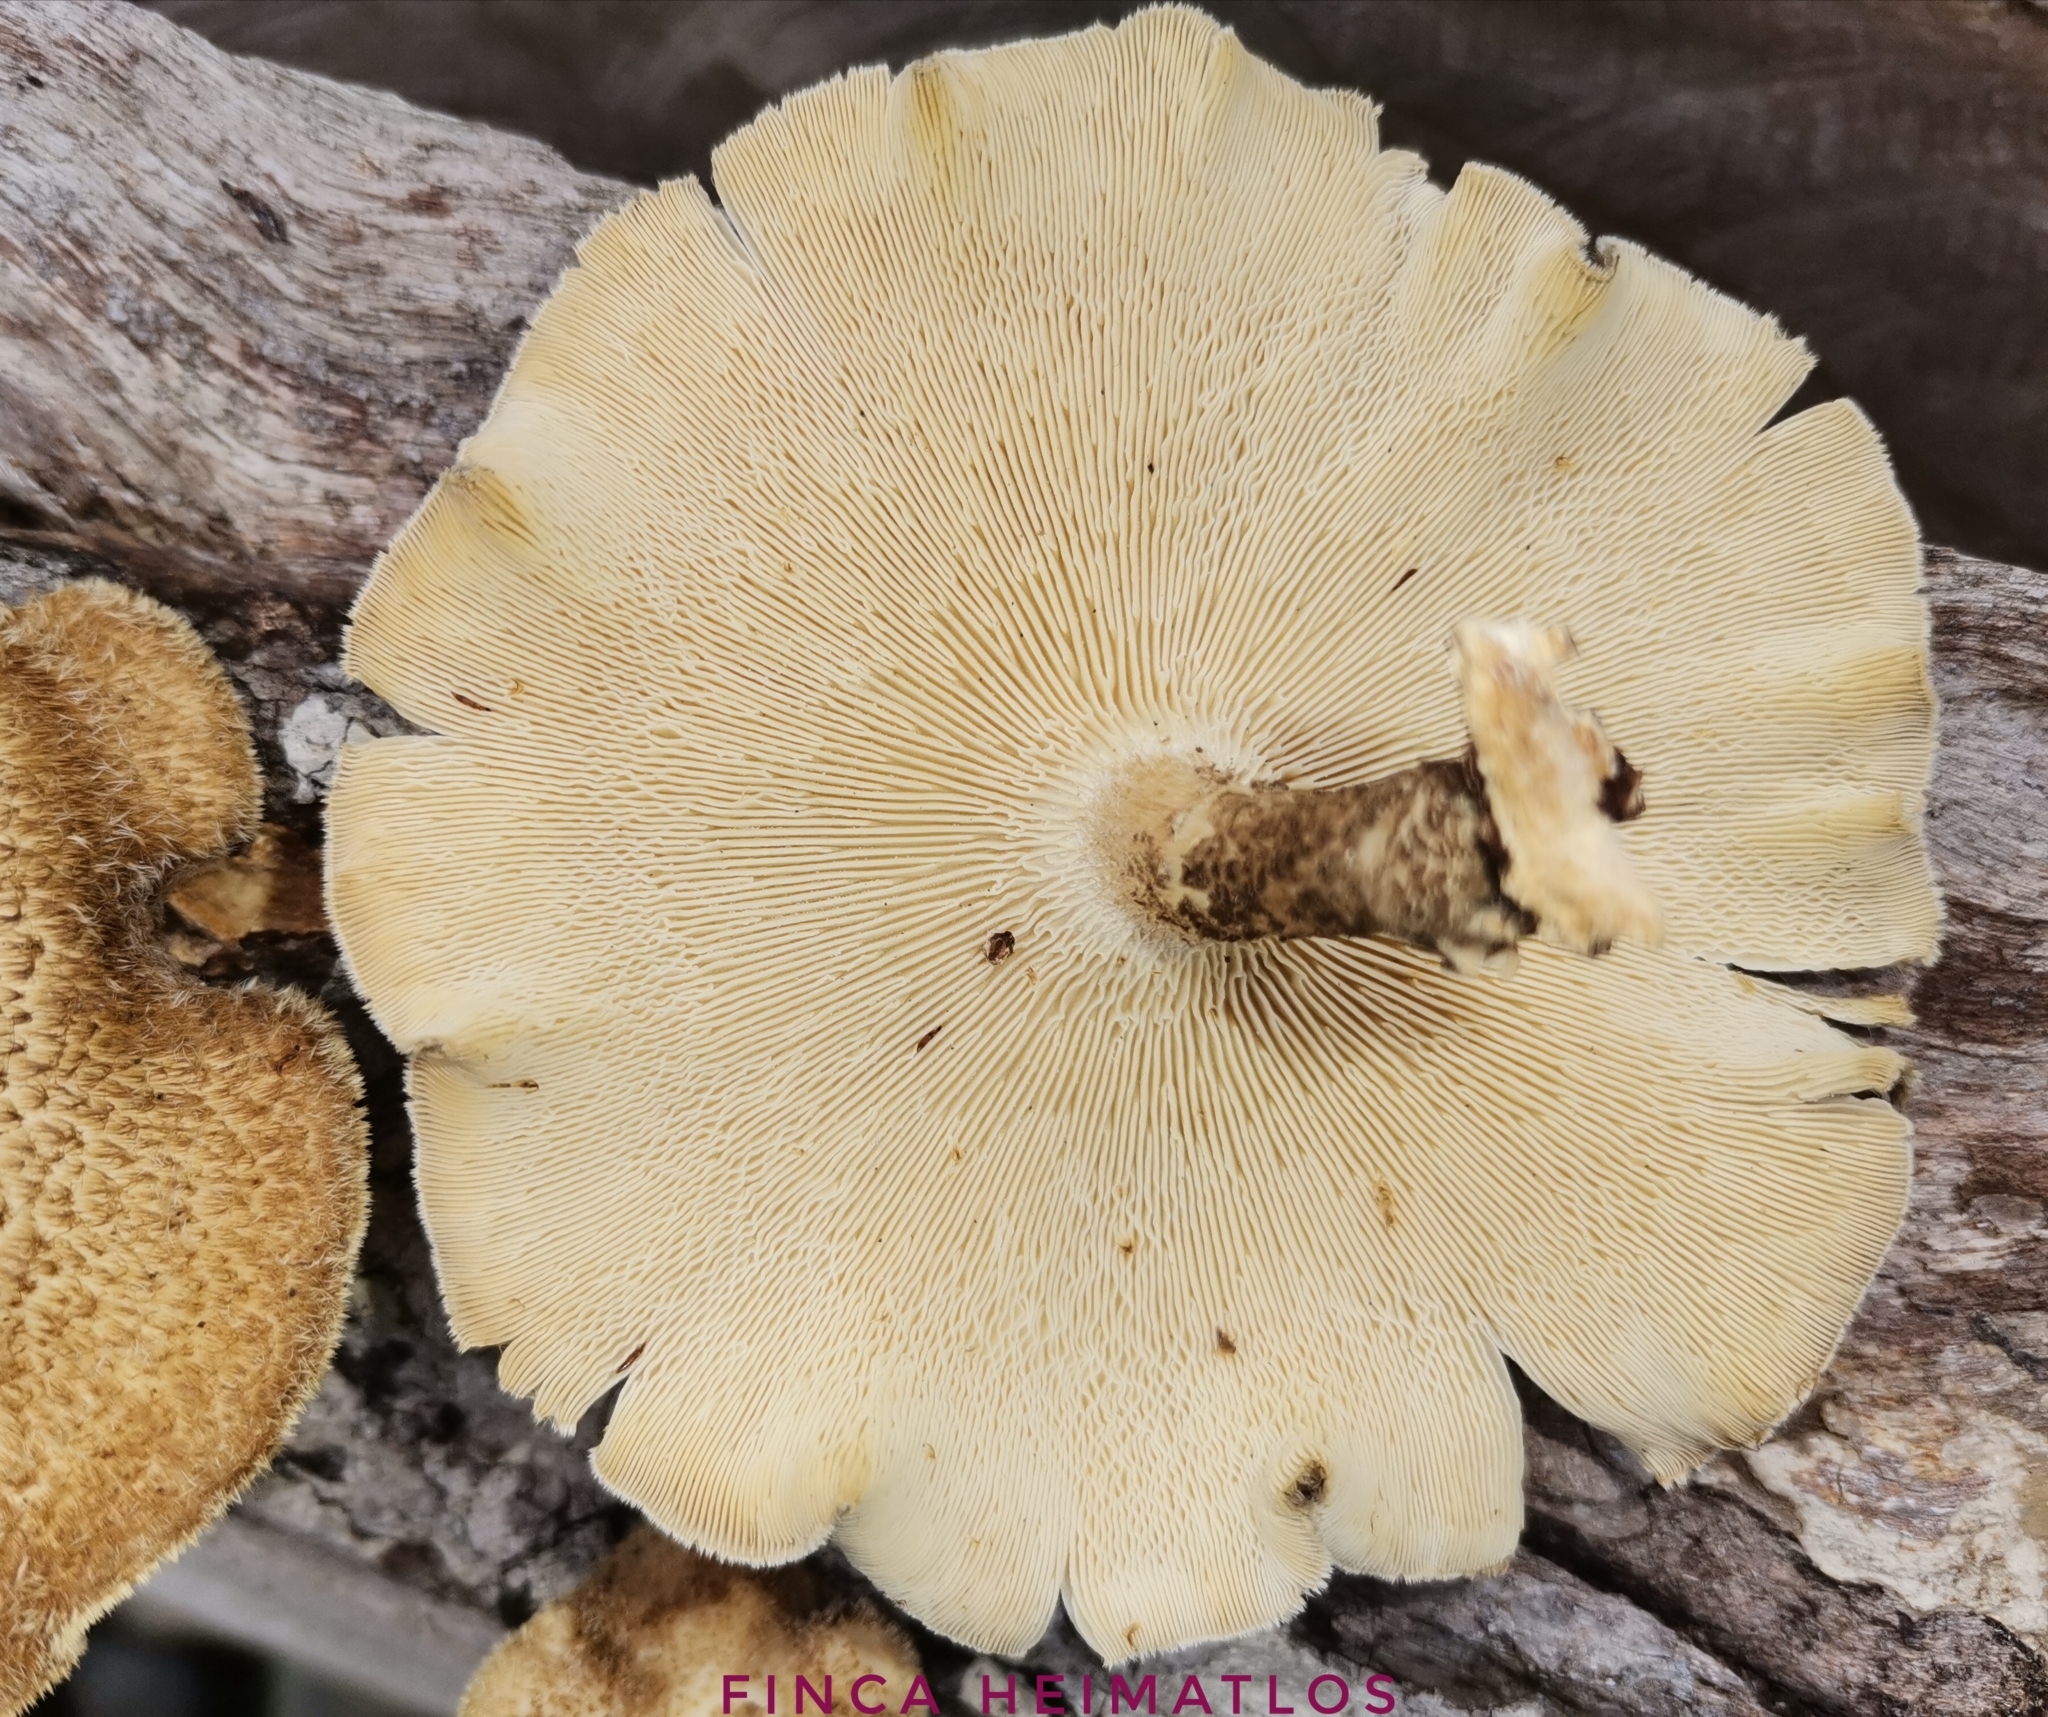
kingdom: Fungi
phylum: Basidiomycota
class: Agaricomycetes
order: Polyporales
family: Polyporaceae
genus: Lentinus
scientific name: Lentinus crinitus
